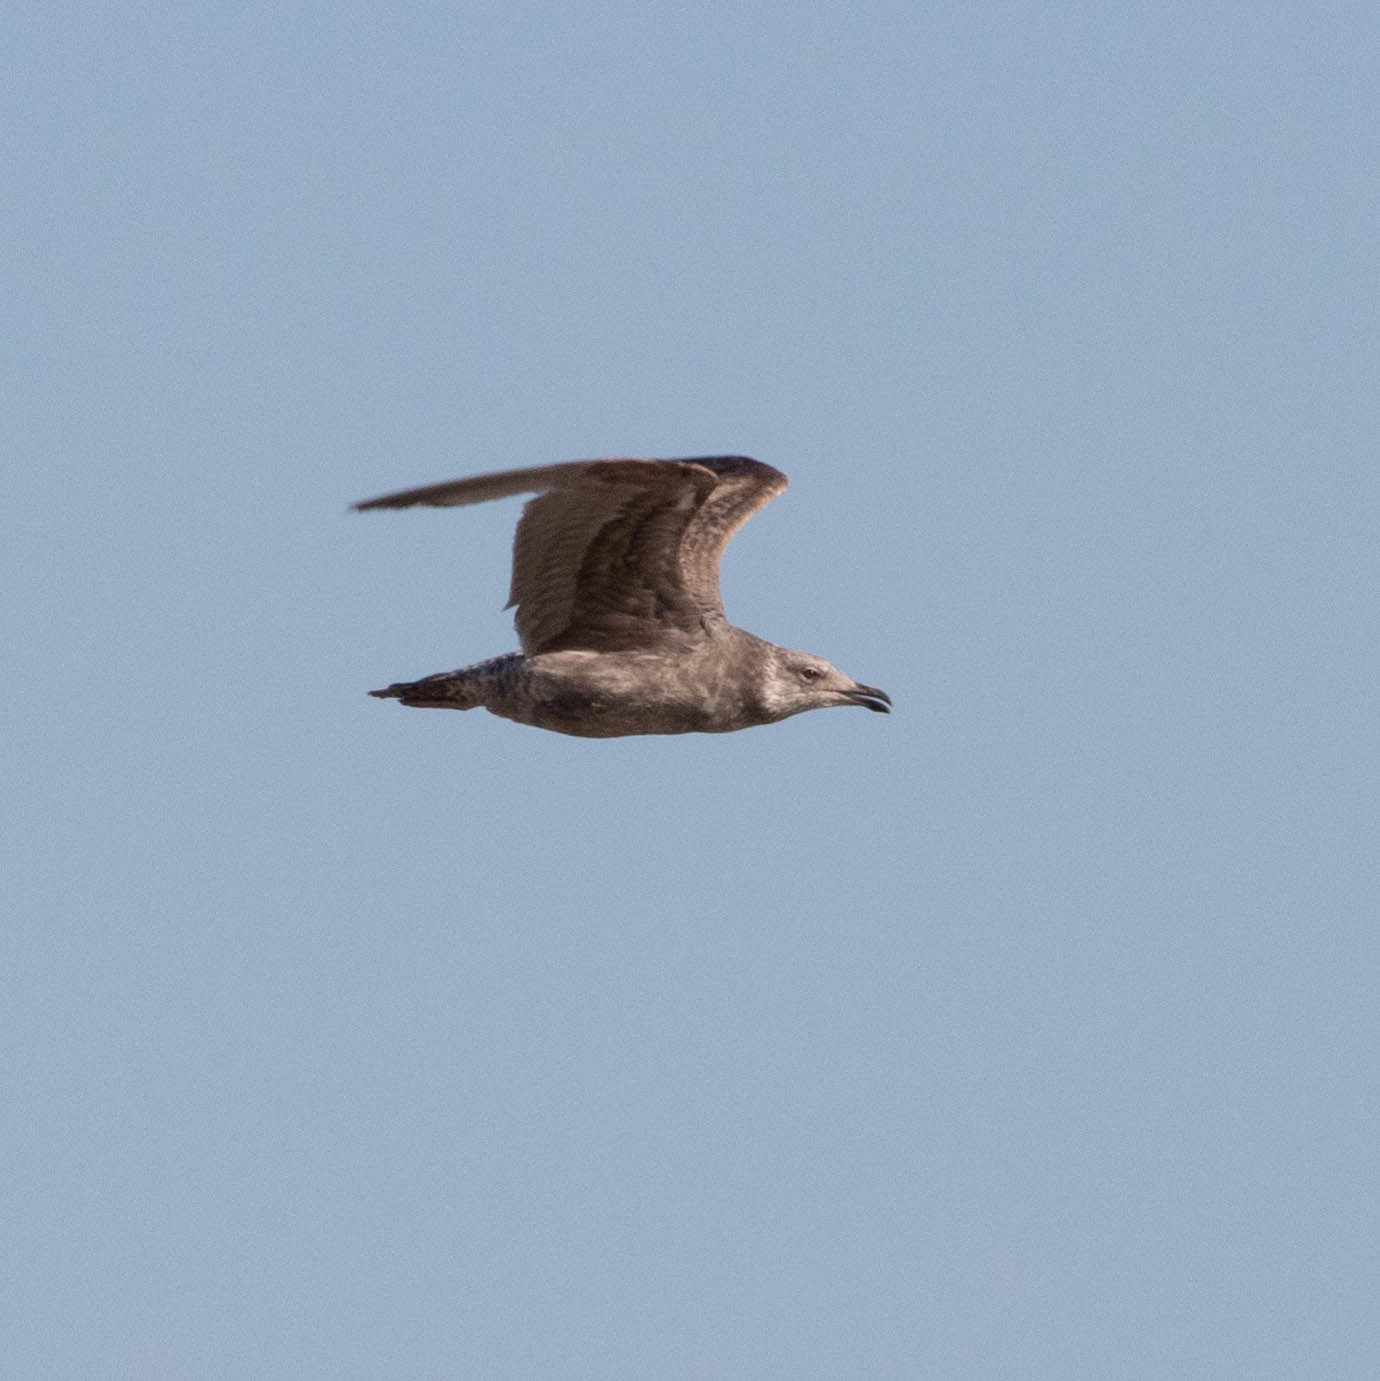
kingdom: Animalia
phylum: Chordata
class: Aves
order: Charadriiformes
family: Laridae
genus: Larus
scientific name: Larus argentatus
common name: Herring gull
